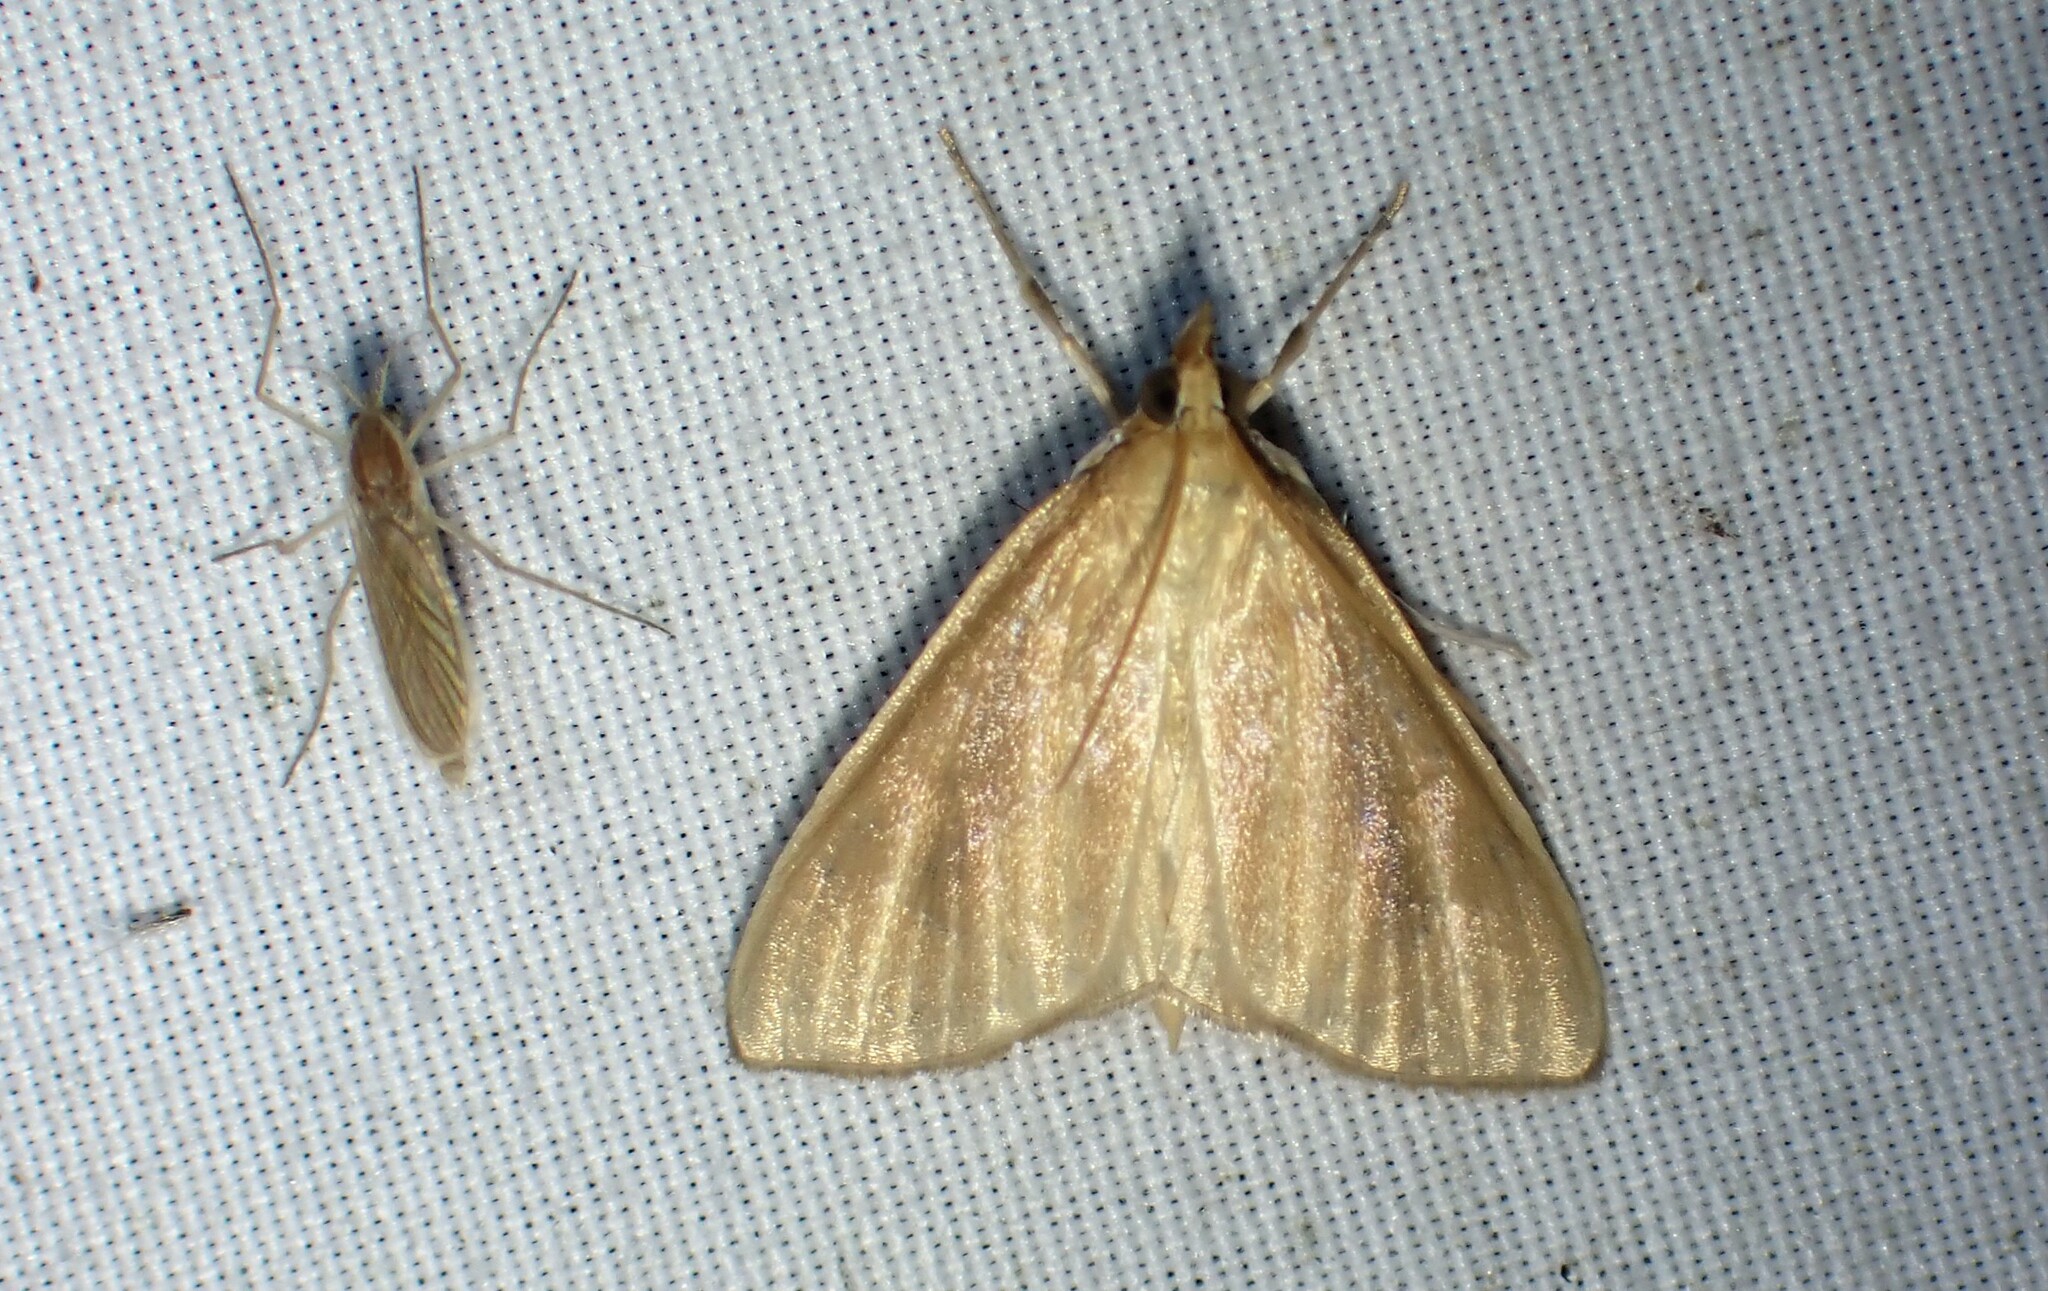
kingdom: Animalia
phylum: Arthropoda
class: Insecta
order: Lepidoptera
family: Crambidae
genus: Nascia
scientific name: Nascia acutellus
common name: Streaked orange moth
